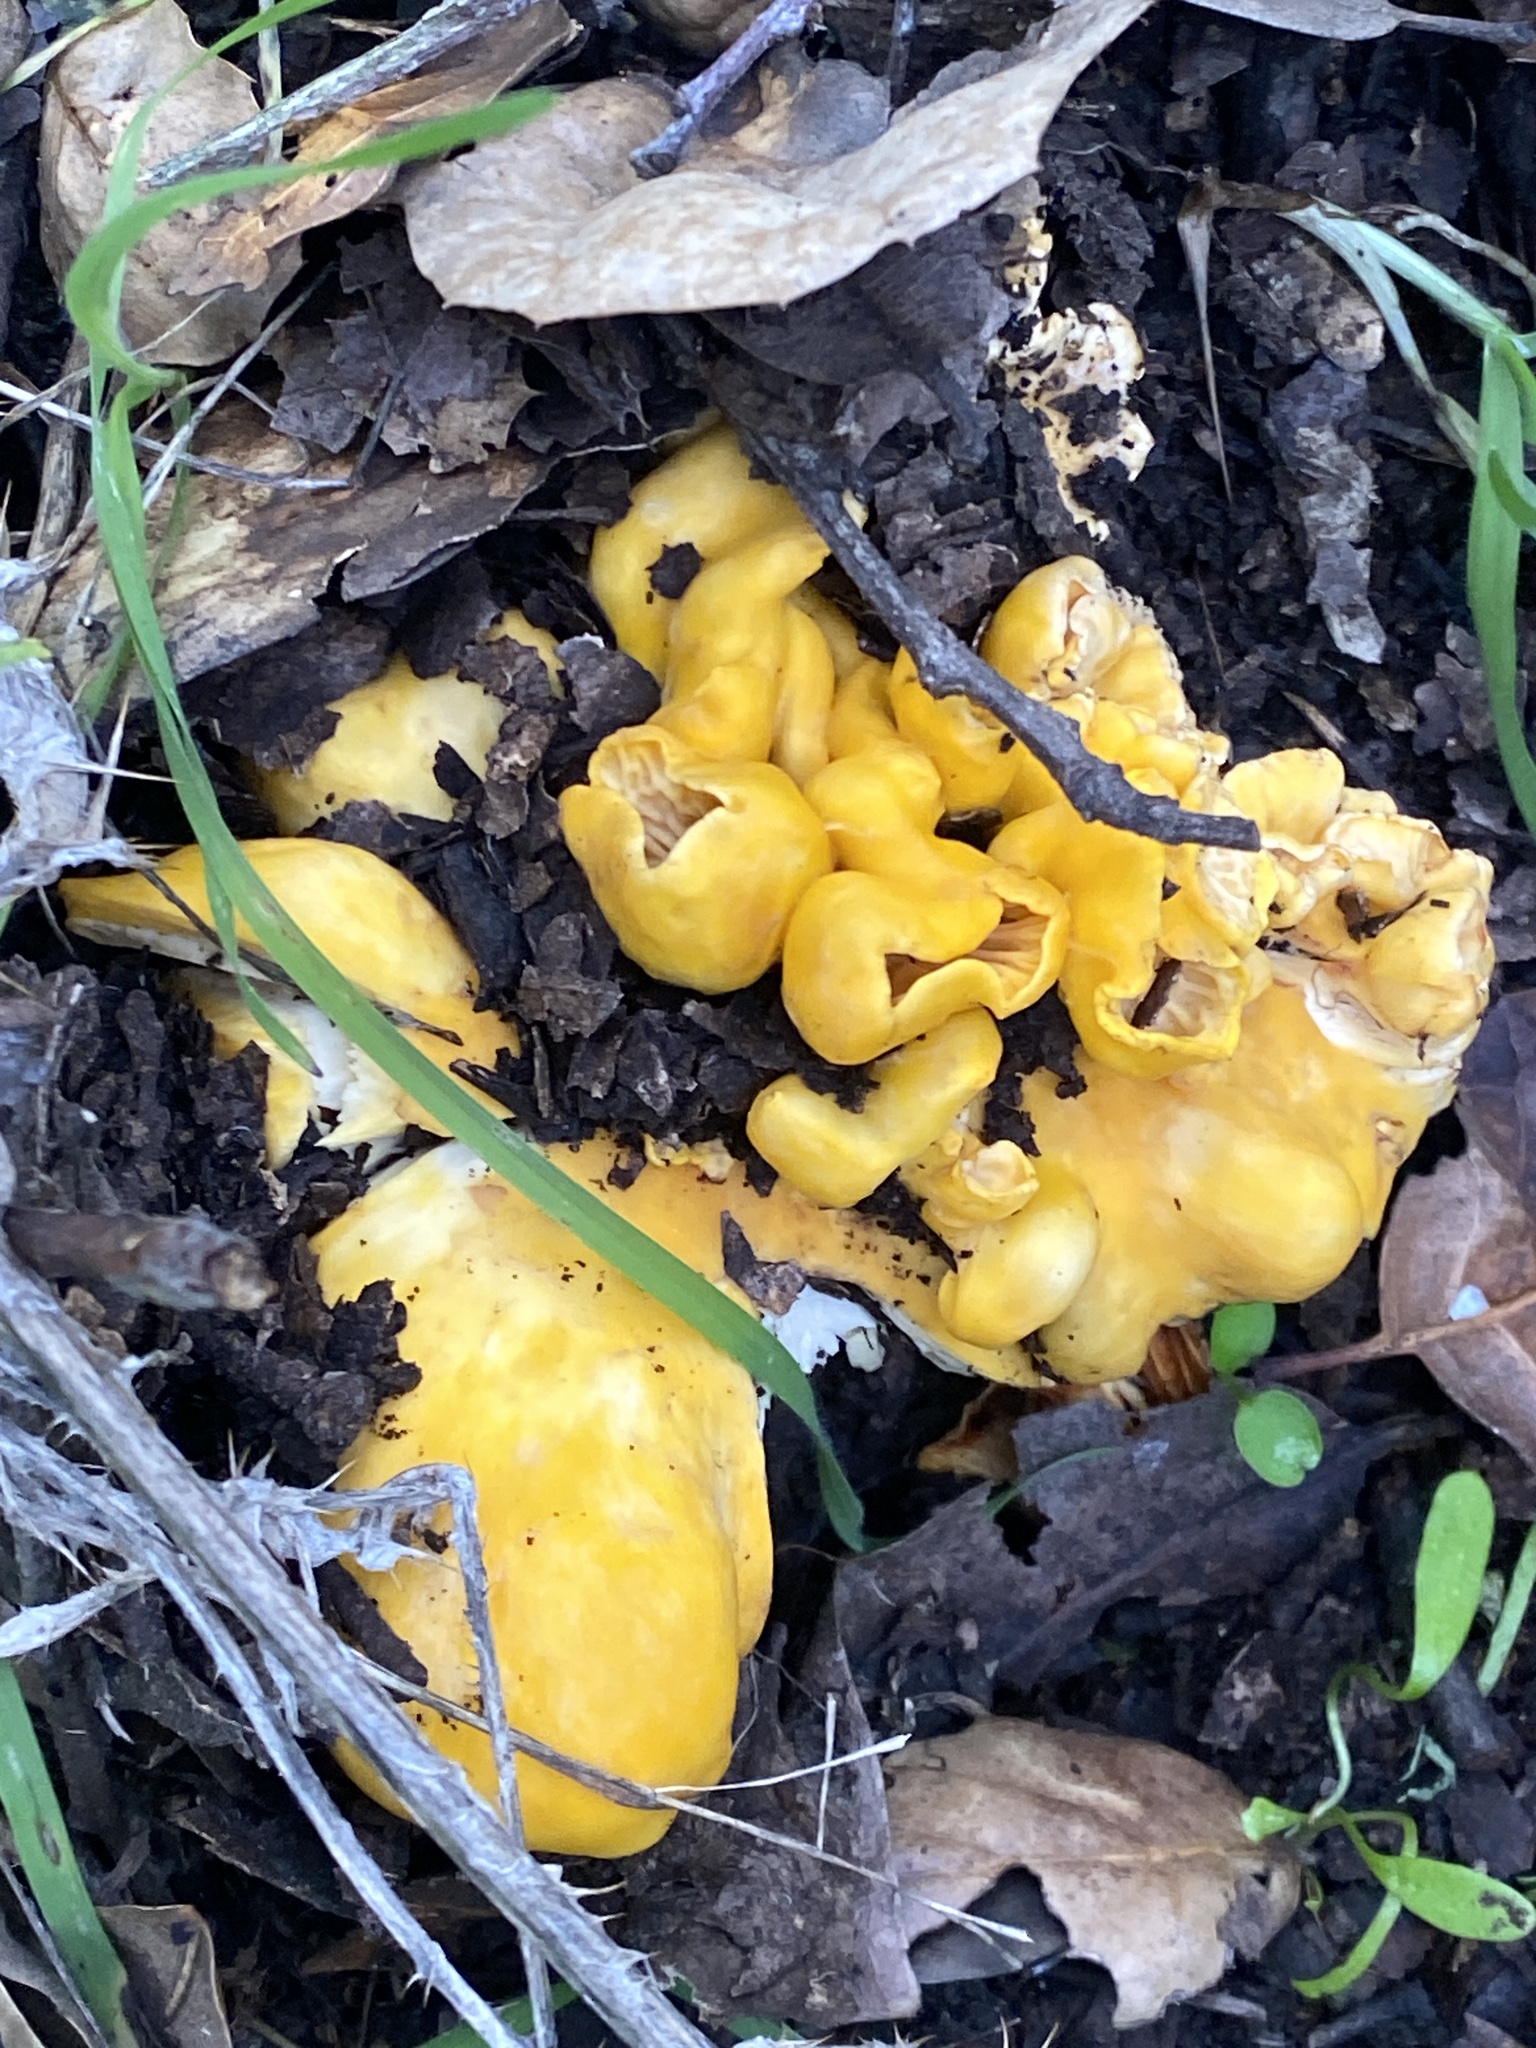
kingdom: Fungi
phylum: Basidiomycota
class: Agaricomycetes
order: Cantharellales
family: Hydnaceae
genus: Cantharellus
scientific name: Cantharellus californicus
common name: California golden chanterelle
